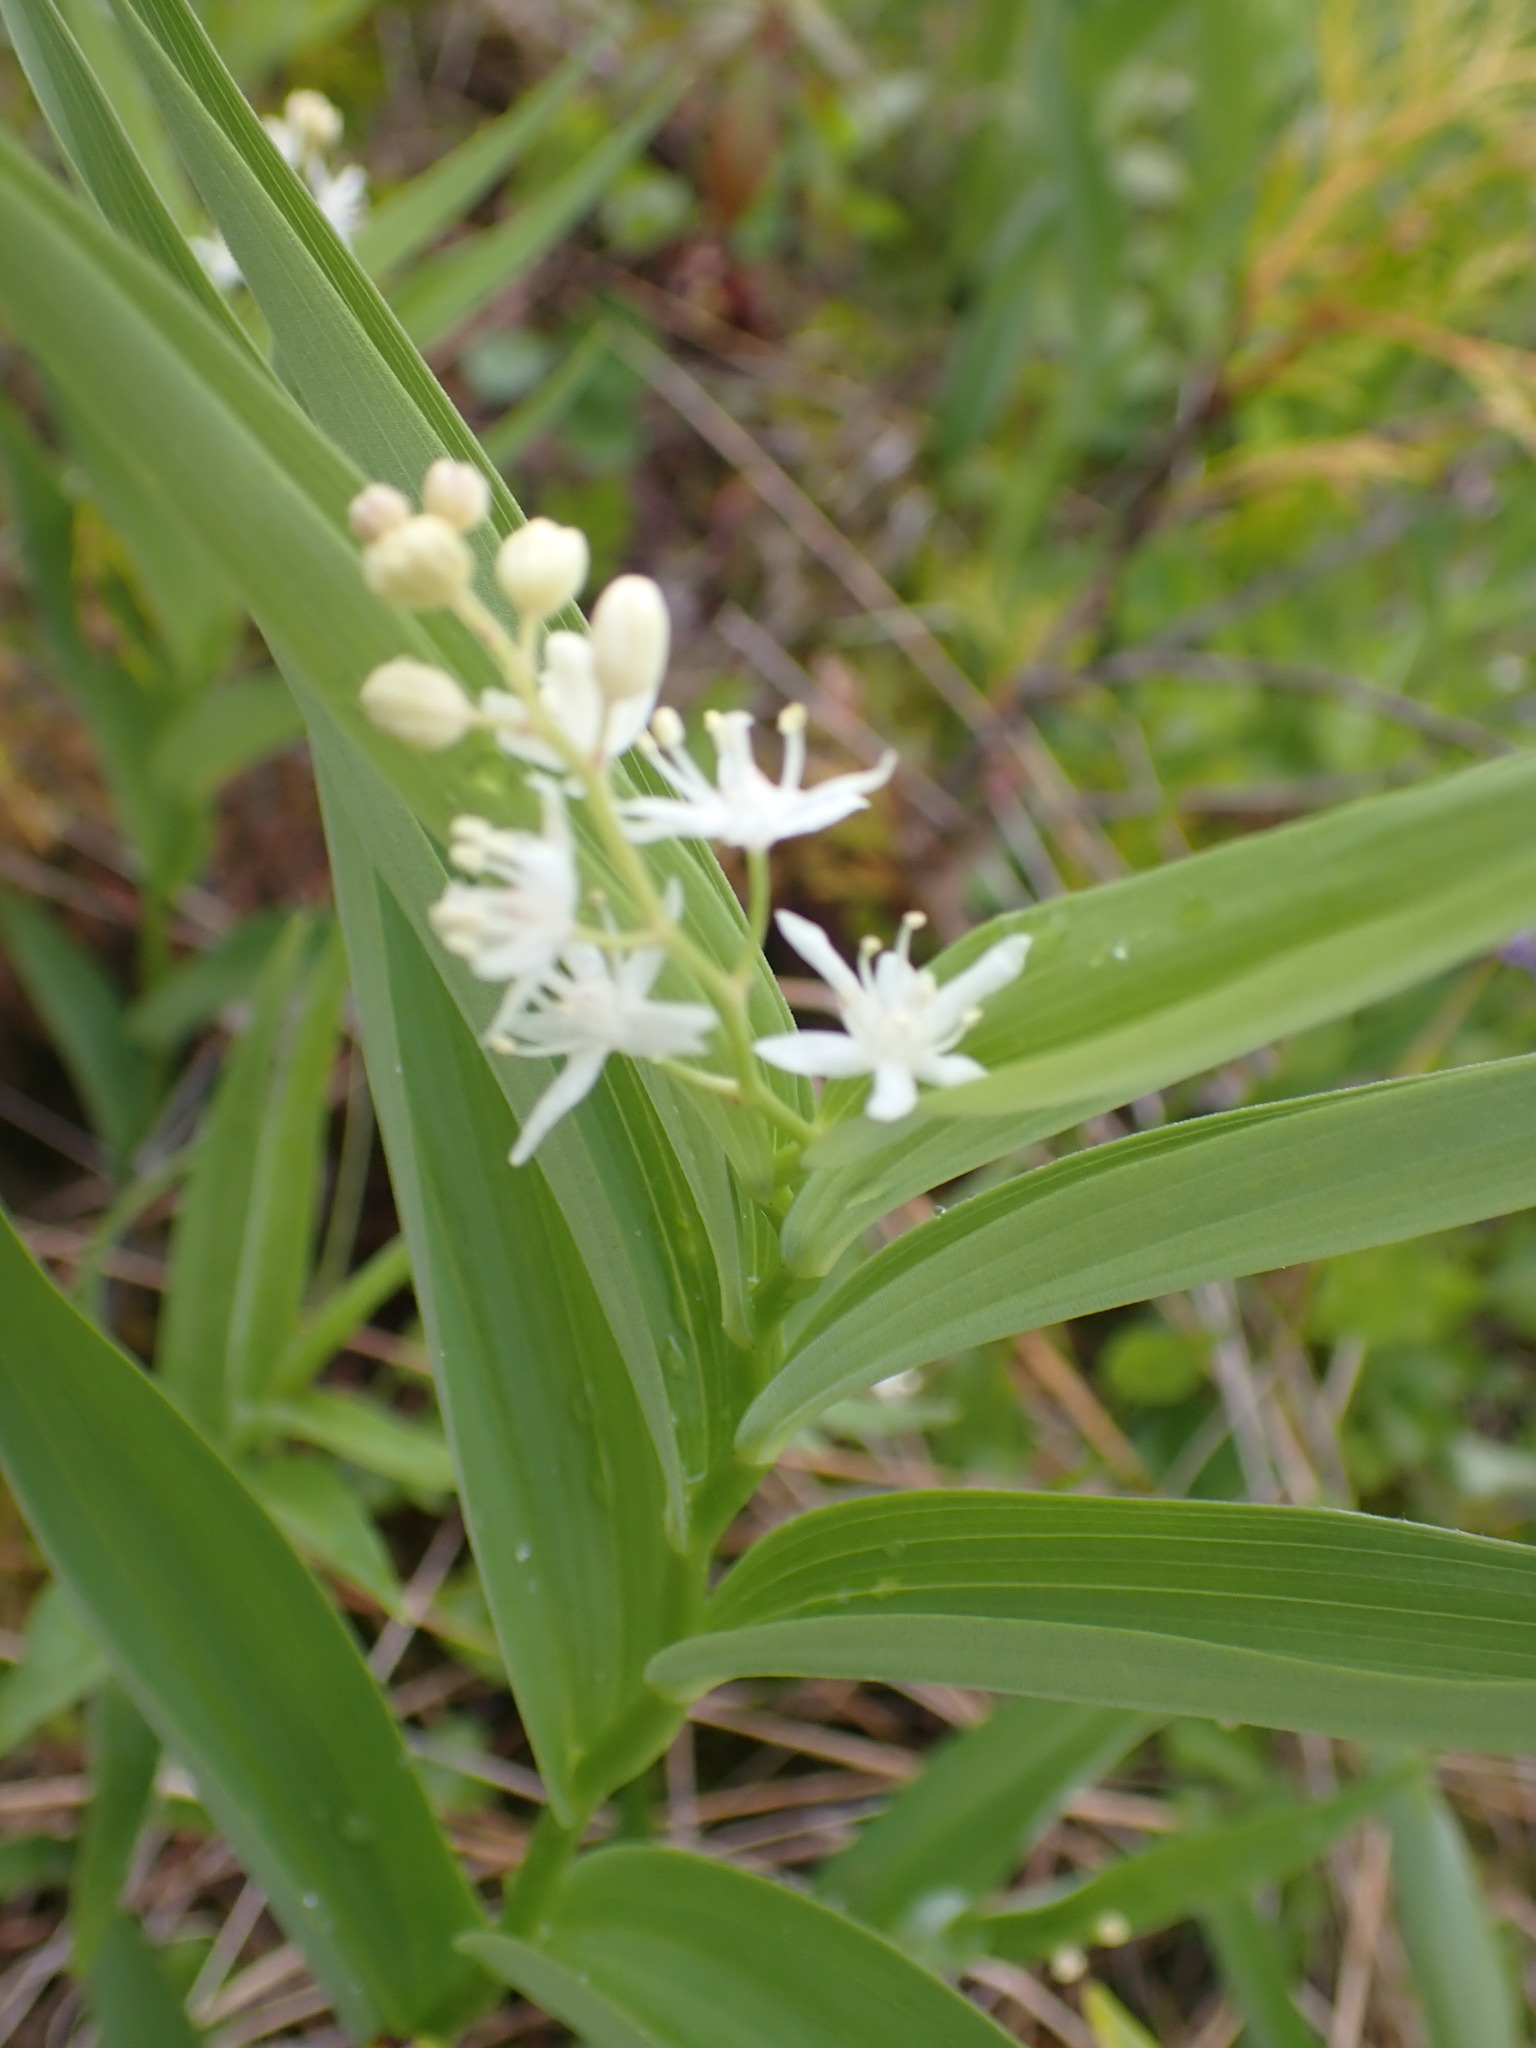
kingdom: Plantae
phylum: Tracheophyta
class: Liliopsida
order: Asparagales
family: Asparagaceae
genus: Maianthemum
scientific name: Maianthemum stellatum
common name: Little false solomon's seal
